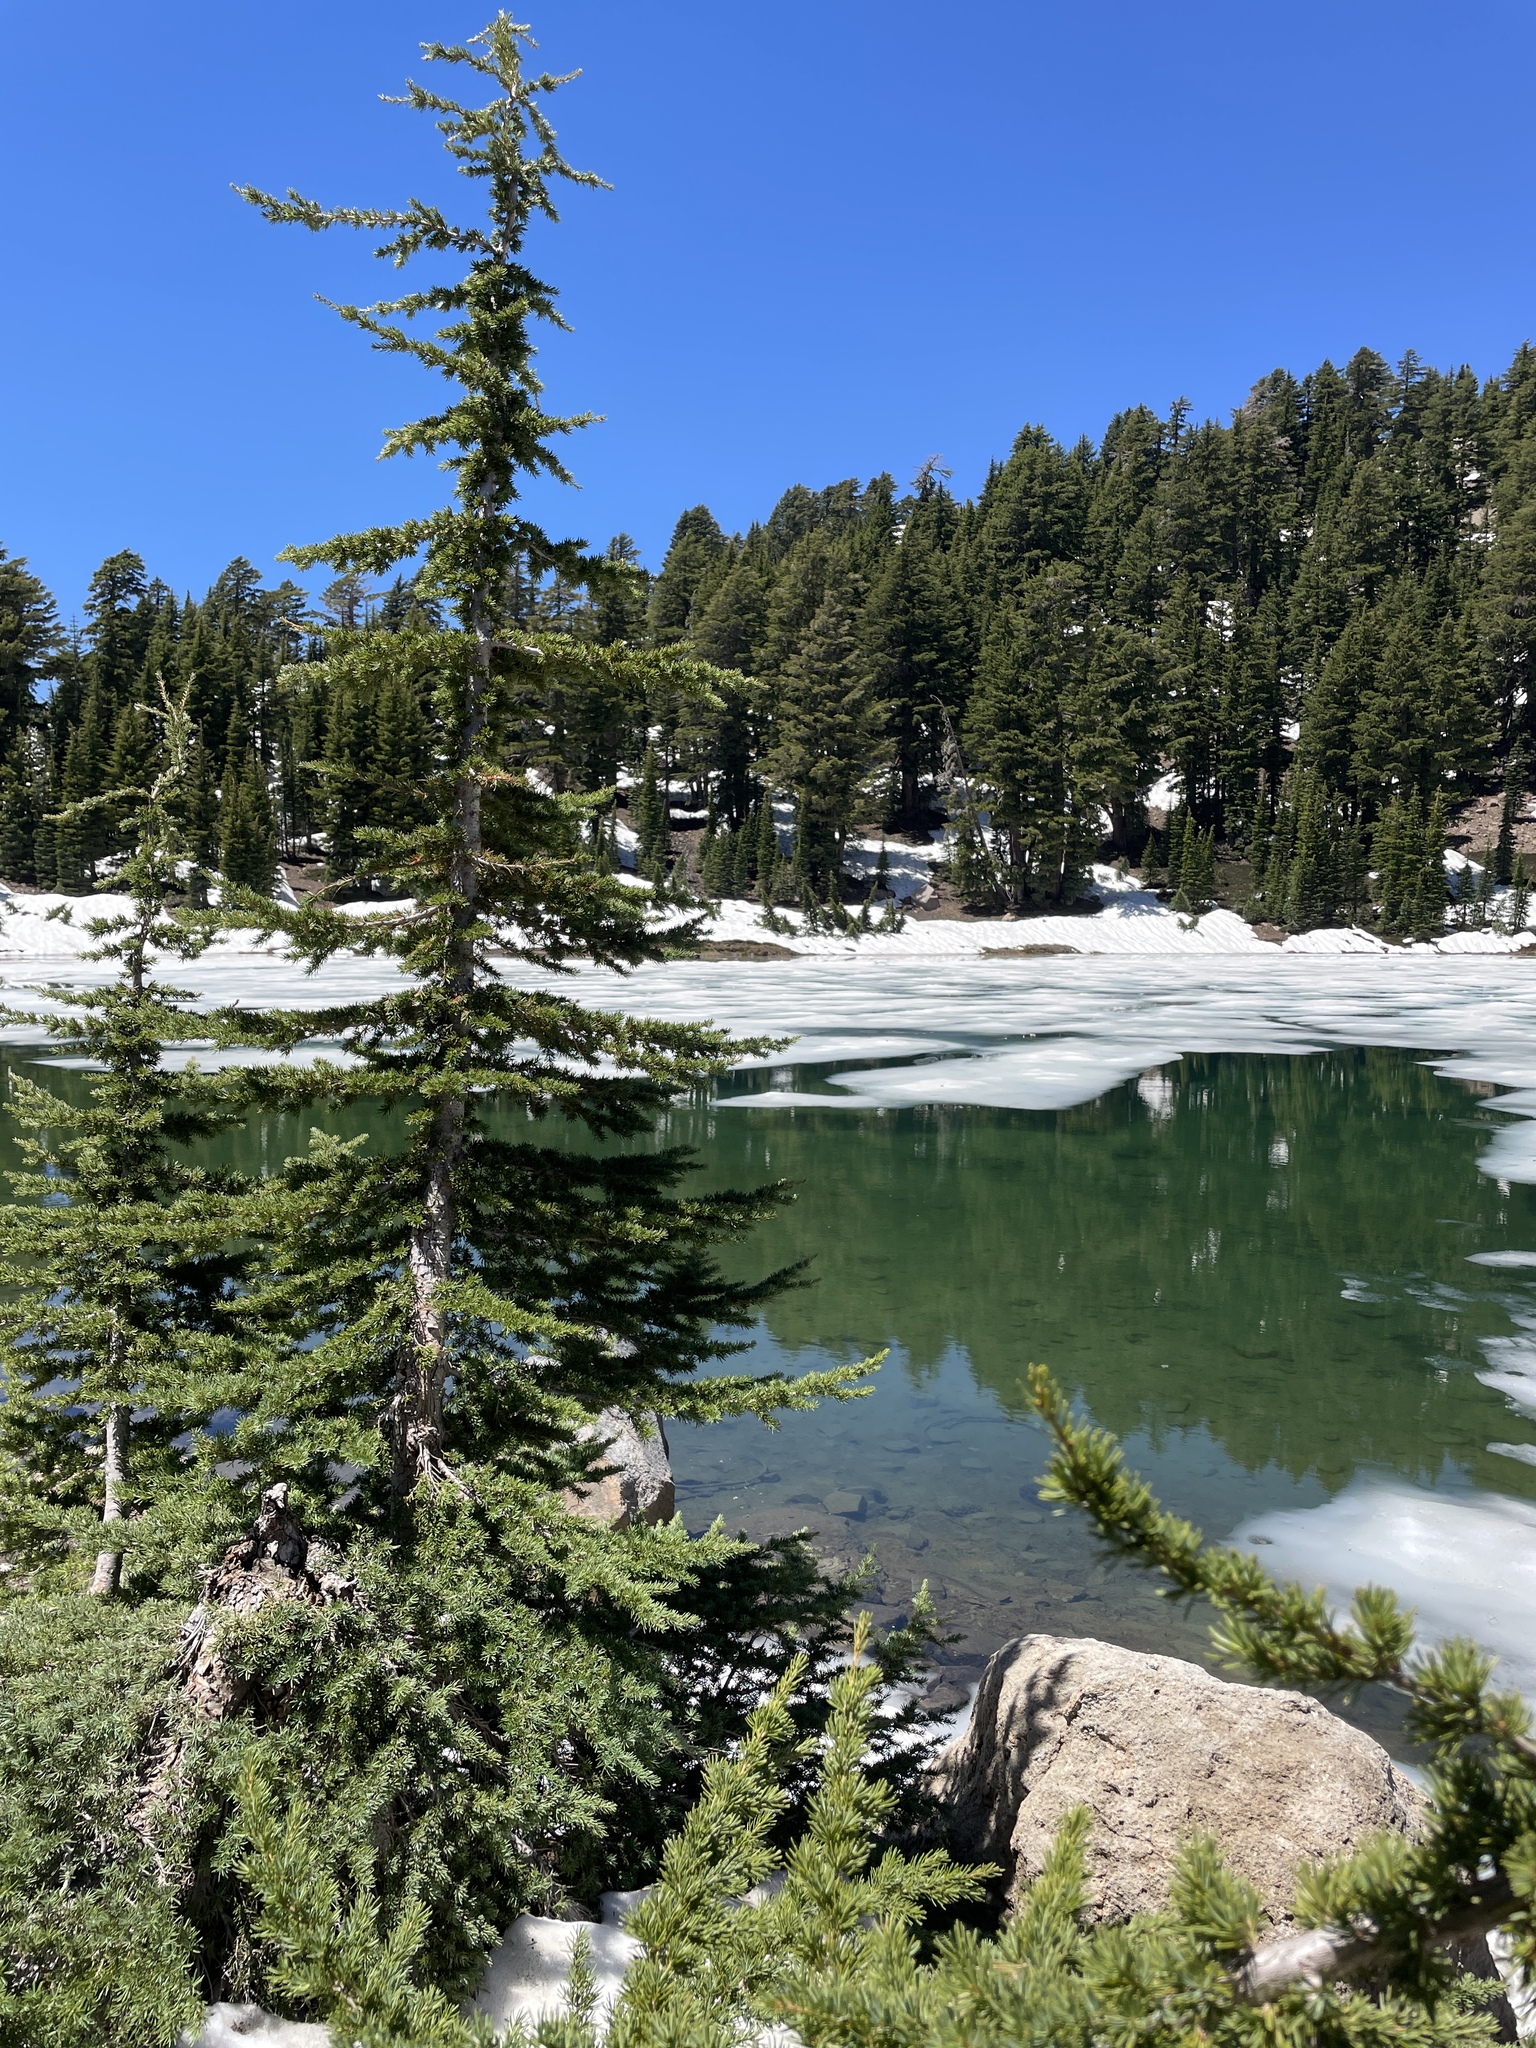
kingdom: Plantae
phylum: Tracheophyta
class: Pinopsida
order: Pinales
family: Pinaceae
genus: Tsuga
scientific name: Tsuga mertensiana
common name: Mountain hemlock
